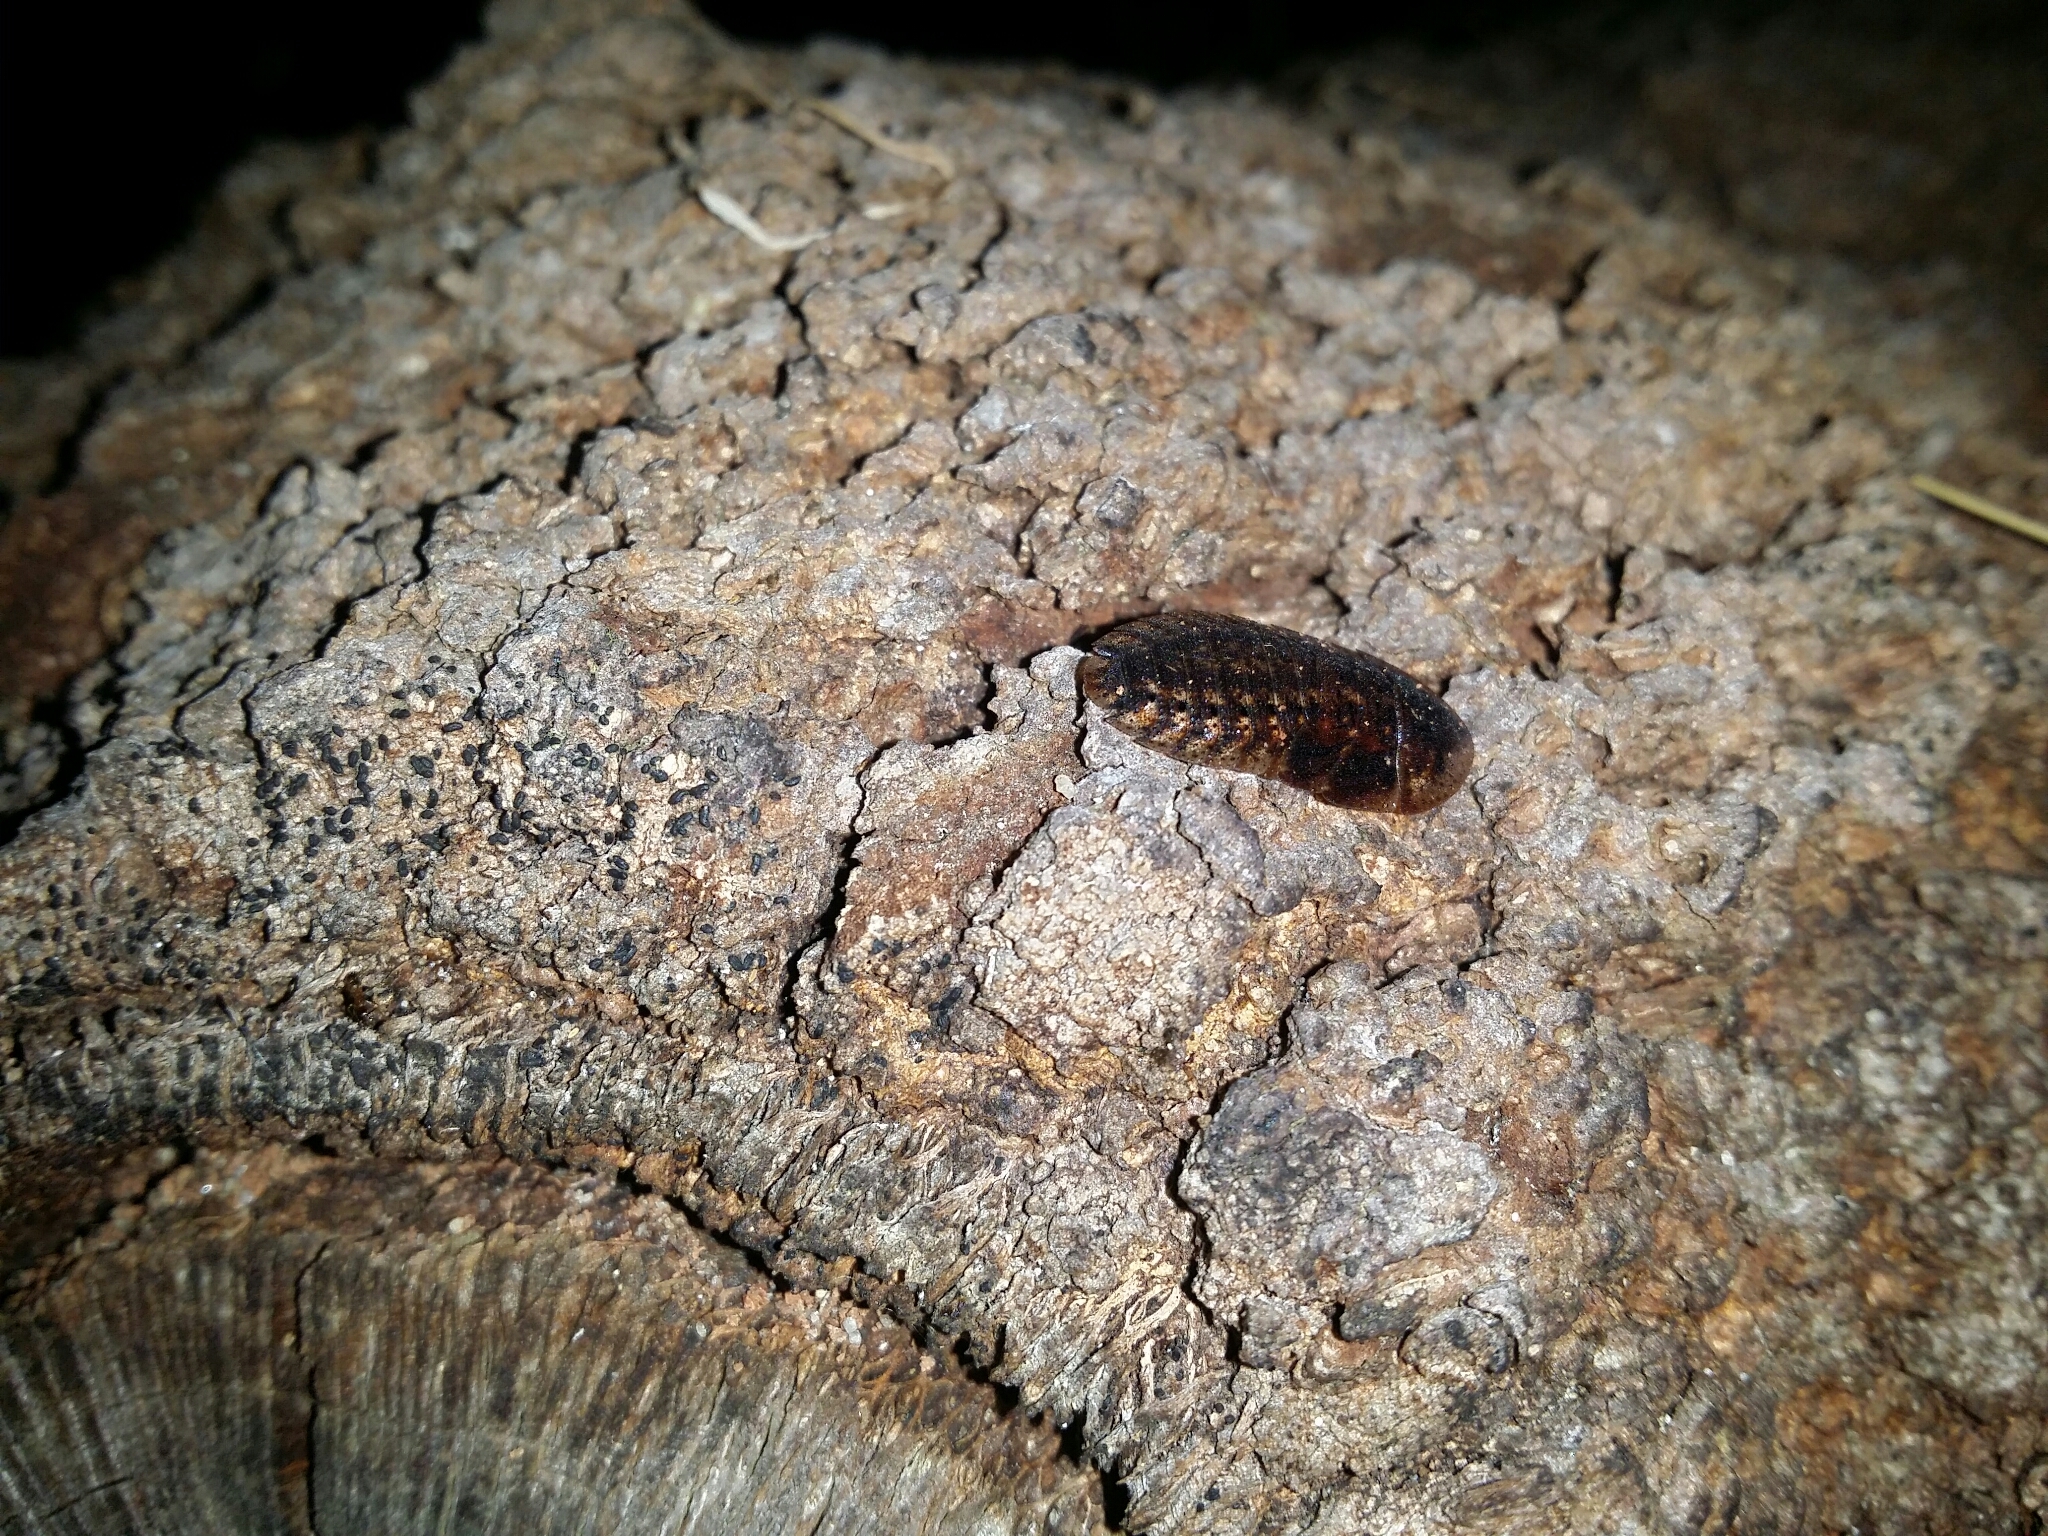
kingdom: Animalia
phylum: Arthropoda
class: Insecta
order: Blattodea
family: Blaberidae
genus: Laxta
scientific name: Laxta rieki
